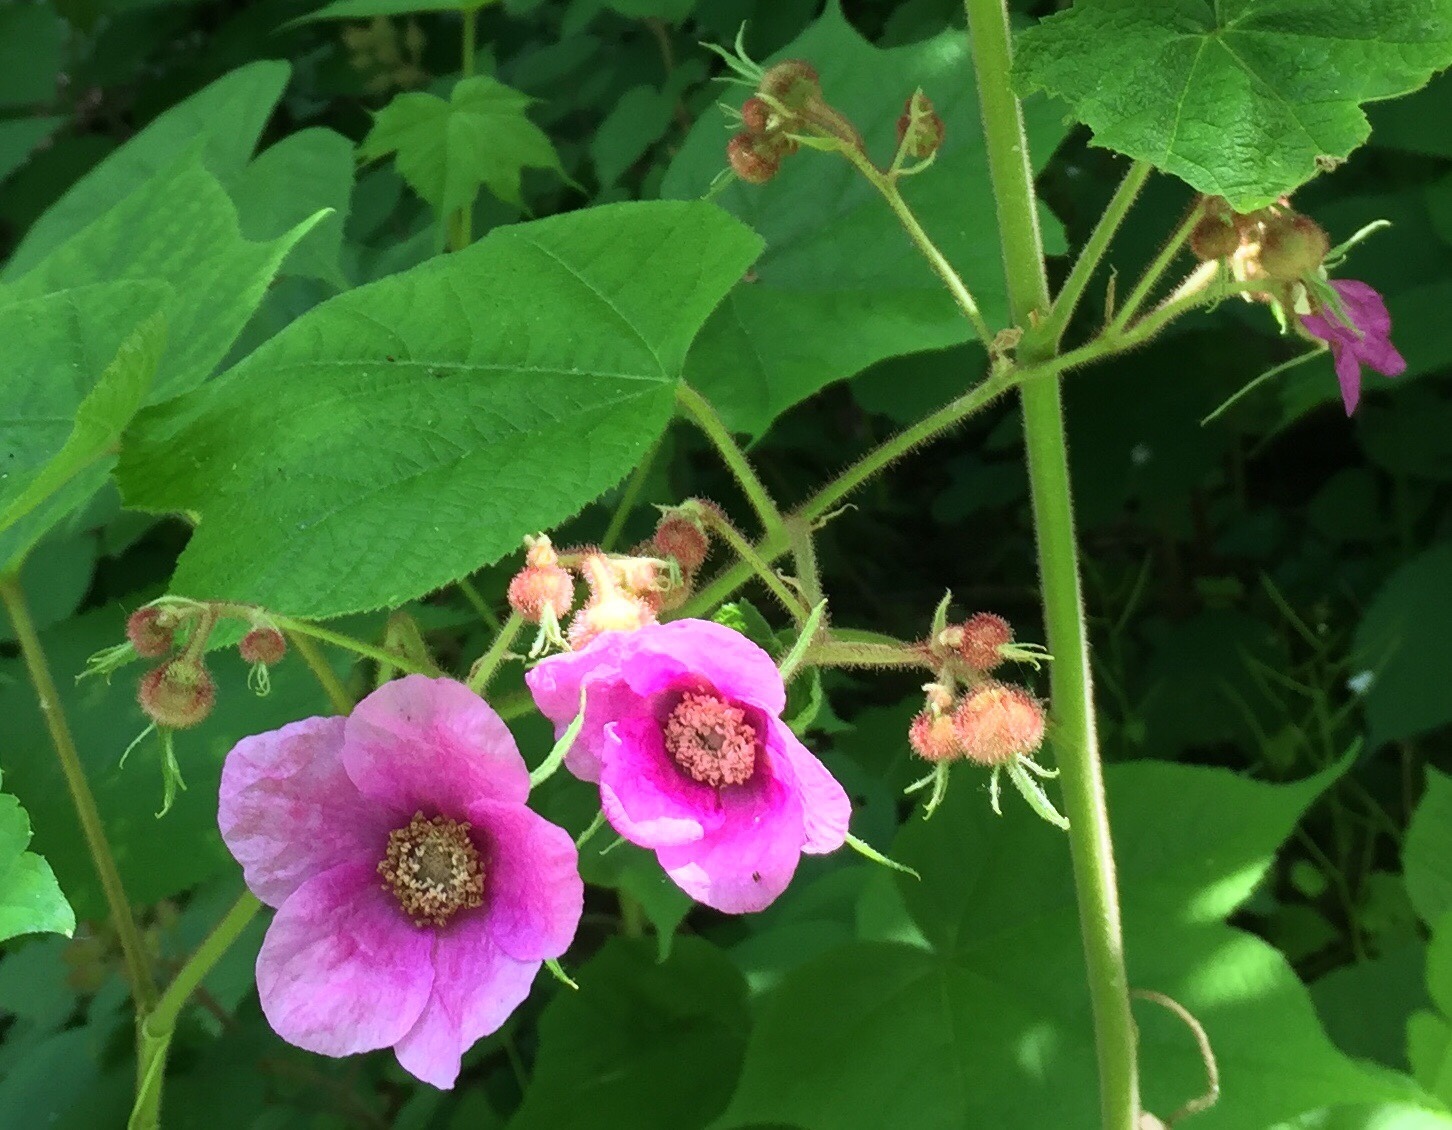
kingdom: Plantae
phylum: Tracheophyta
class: Magnoliopsida
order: Rosales
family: Rosaceae
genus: Rubus
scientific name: Rubus odoratus
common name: Purple-flowered raspberry
